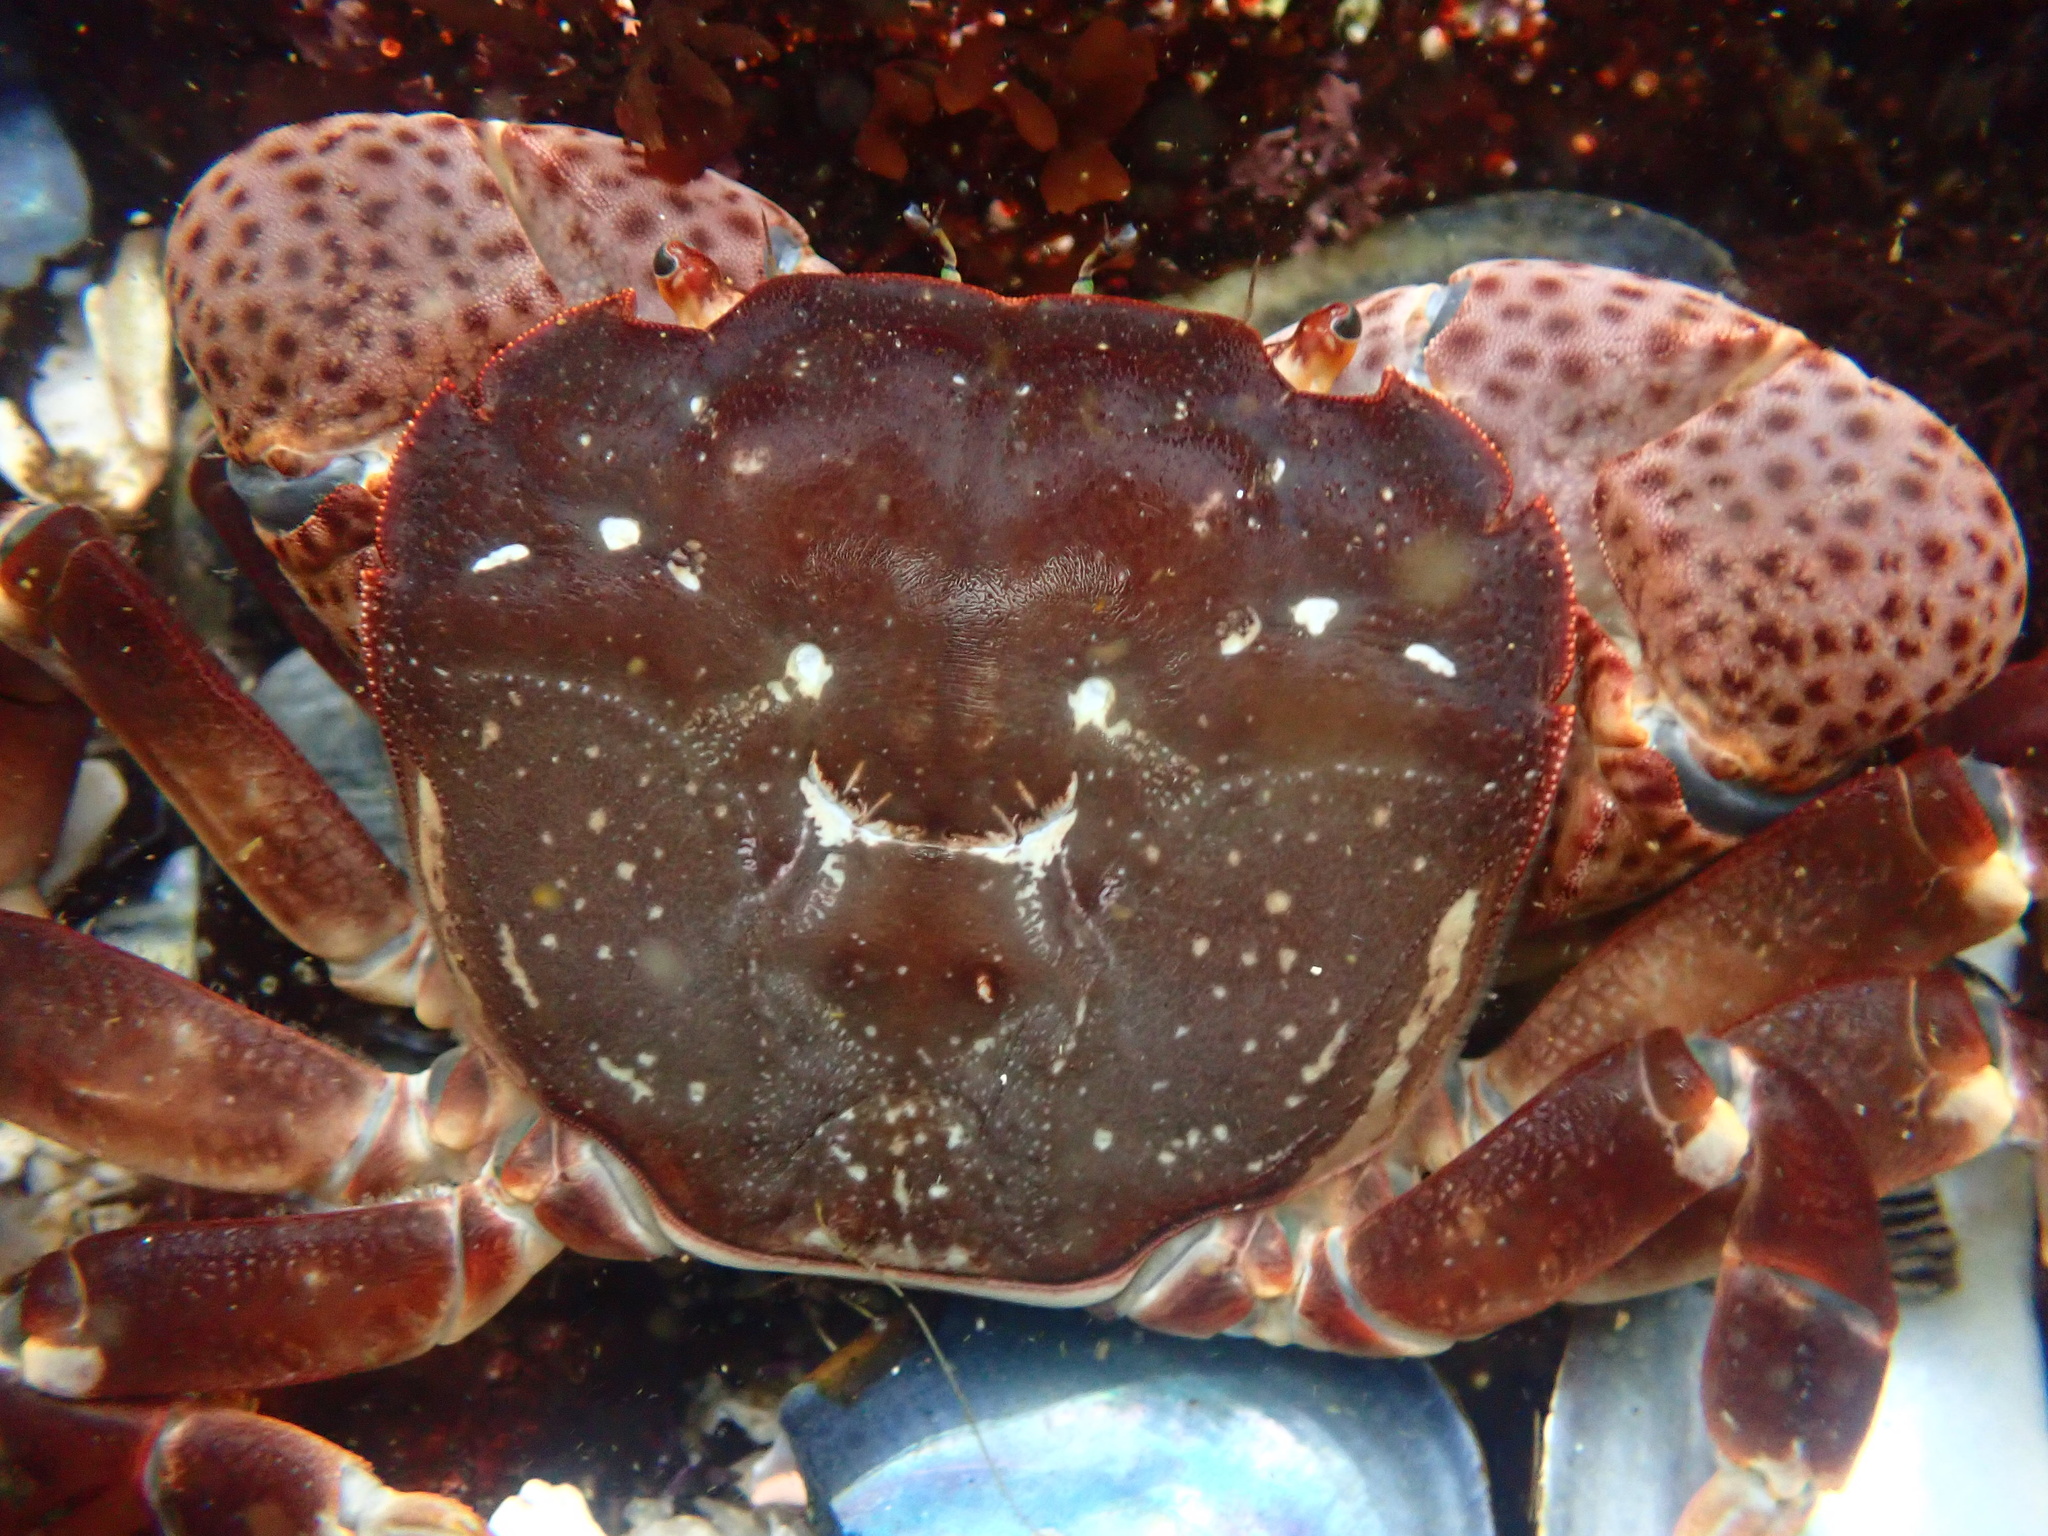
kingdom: Animalia
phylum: Arthropoda
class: Malacostraca
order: Decapoda
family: Varunidae
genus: Hemigrapsus
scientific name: Hemigrapsus nudus
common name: Purple shore crab
